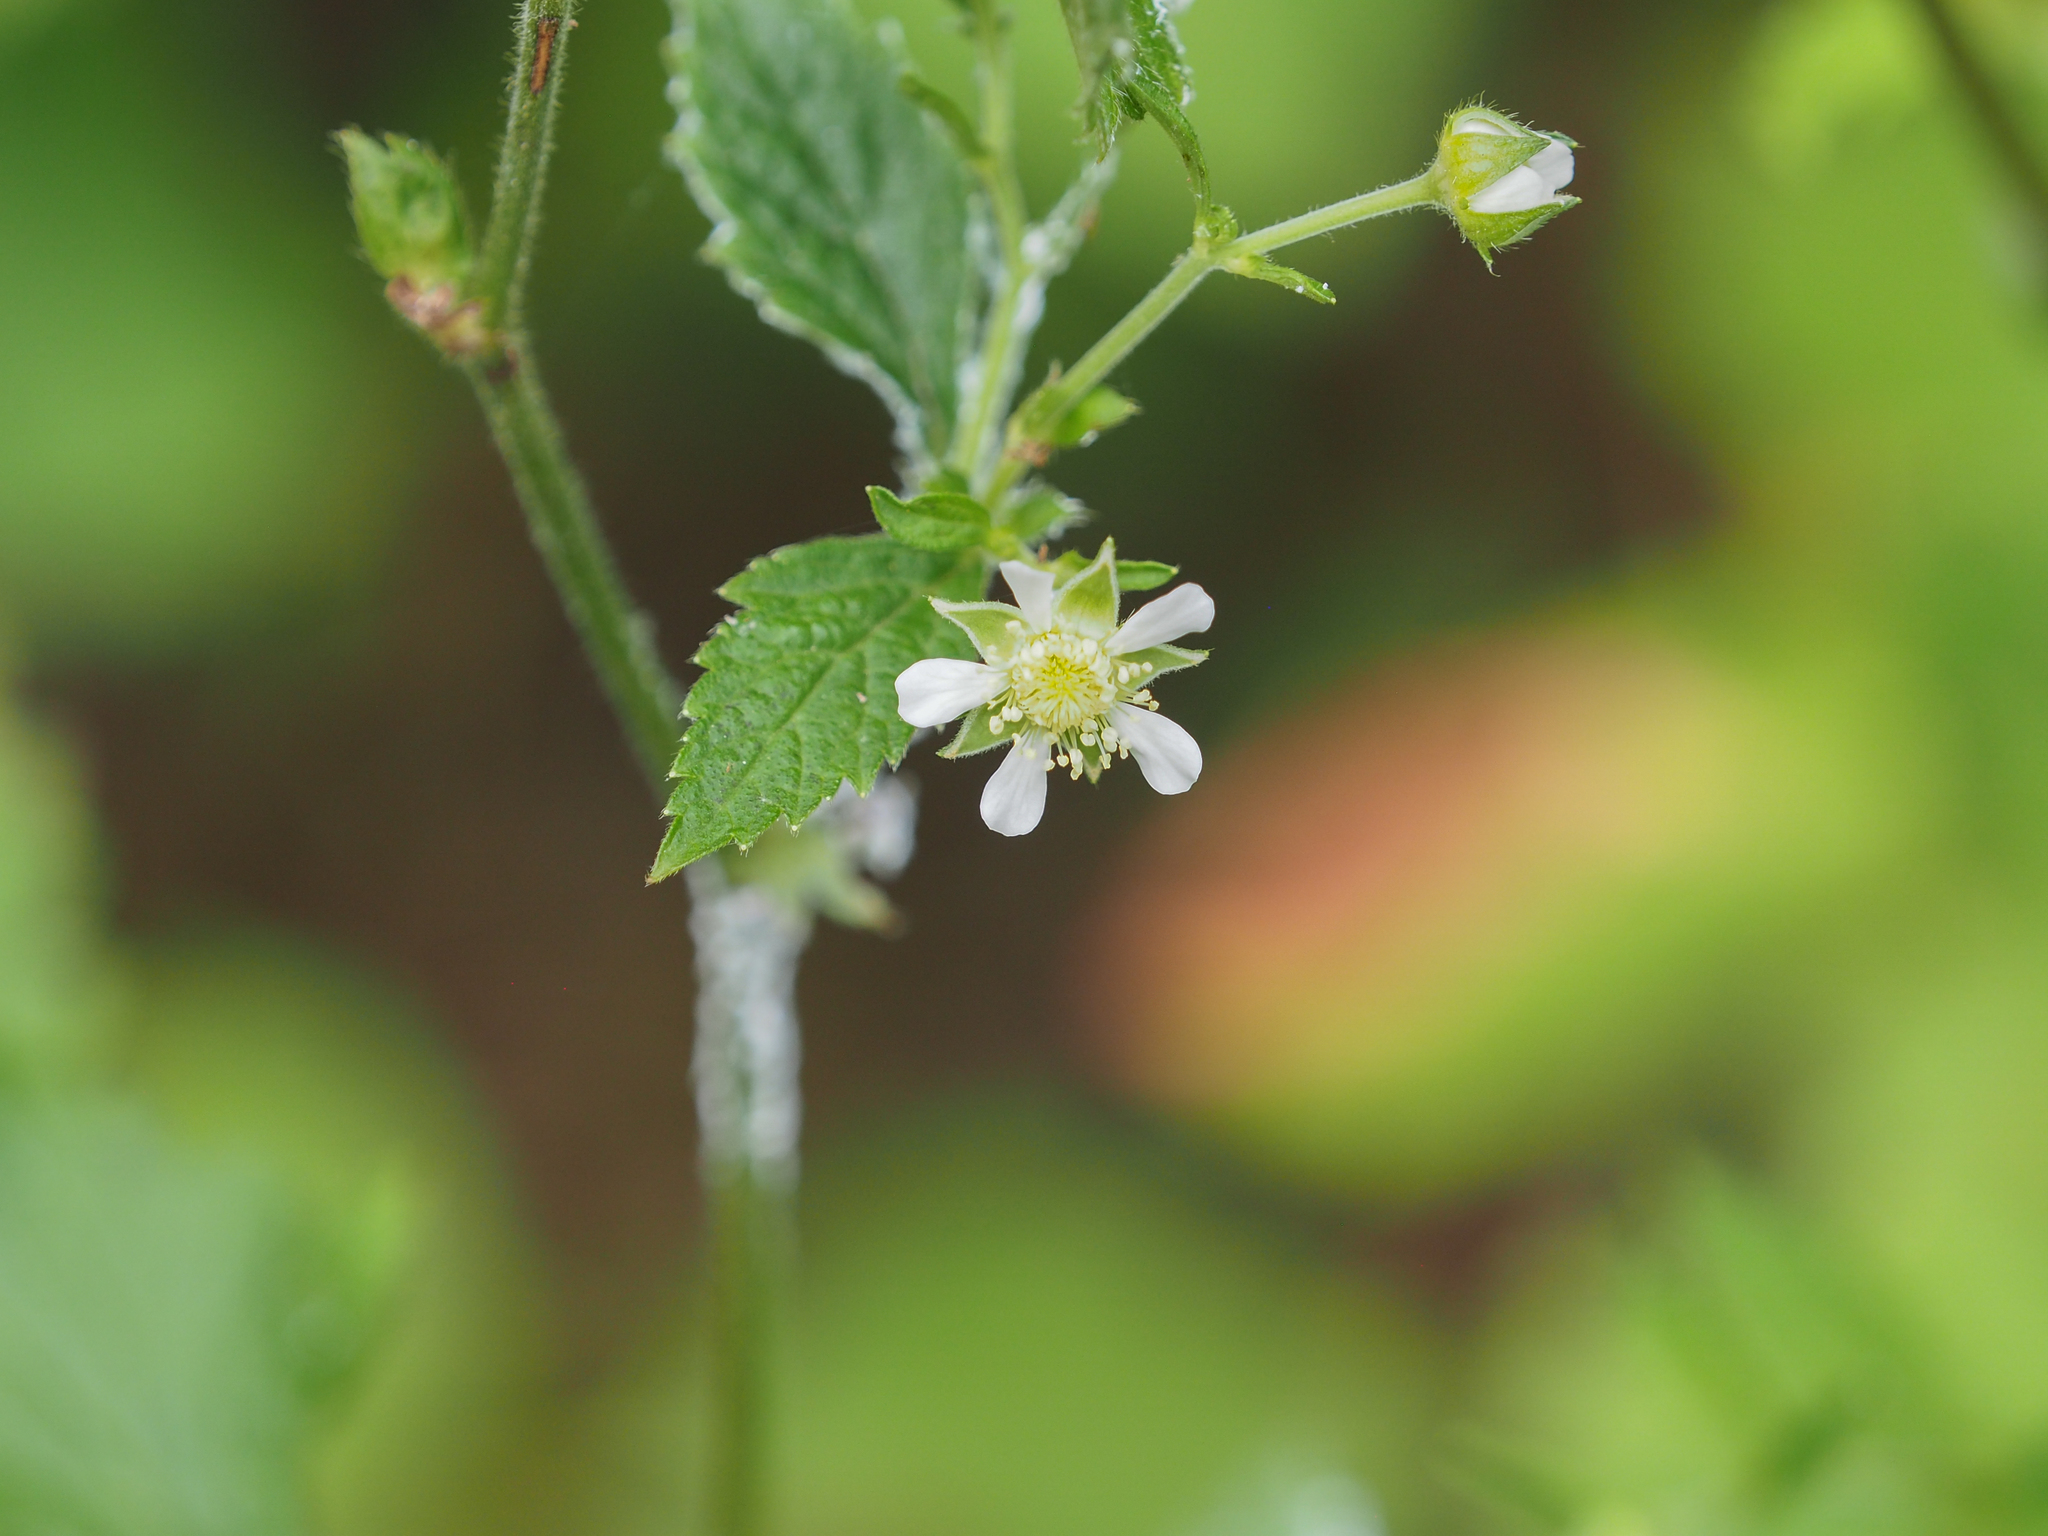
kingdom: Plantae
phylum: Tracheophyta
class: Magnoliopsida
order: Rosales
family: Rosaceae
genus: Geum
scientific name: Geum canadense
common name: White avens
